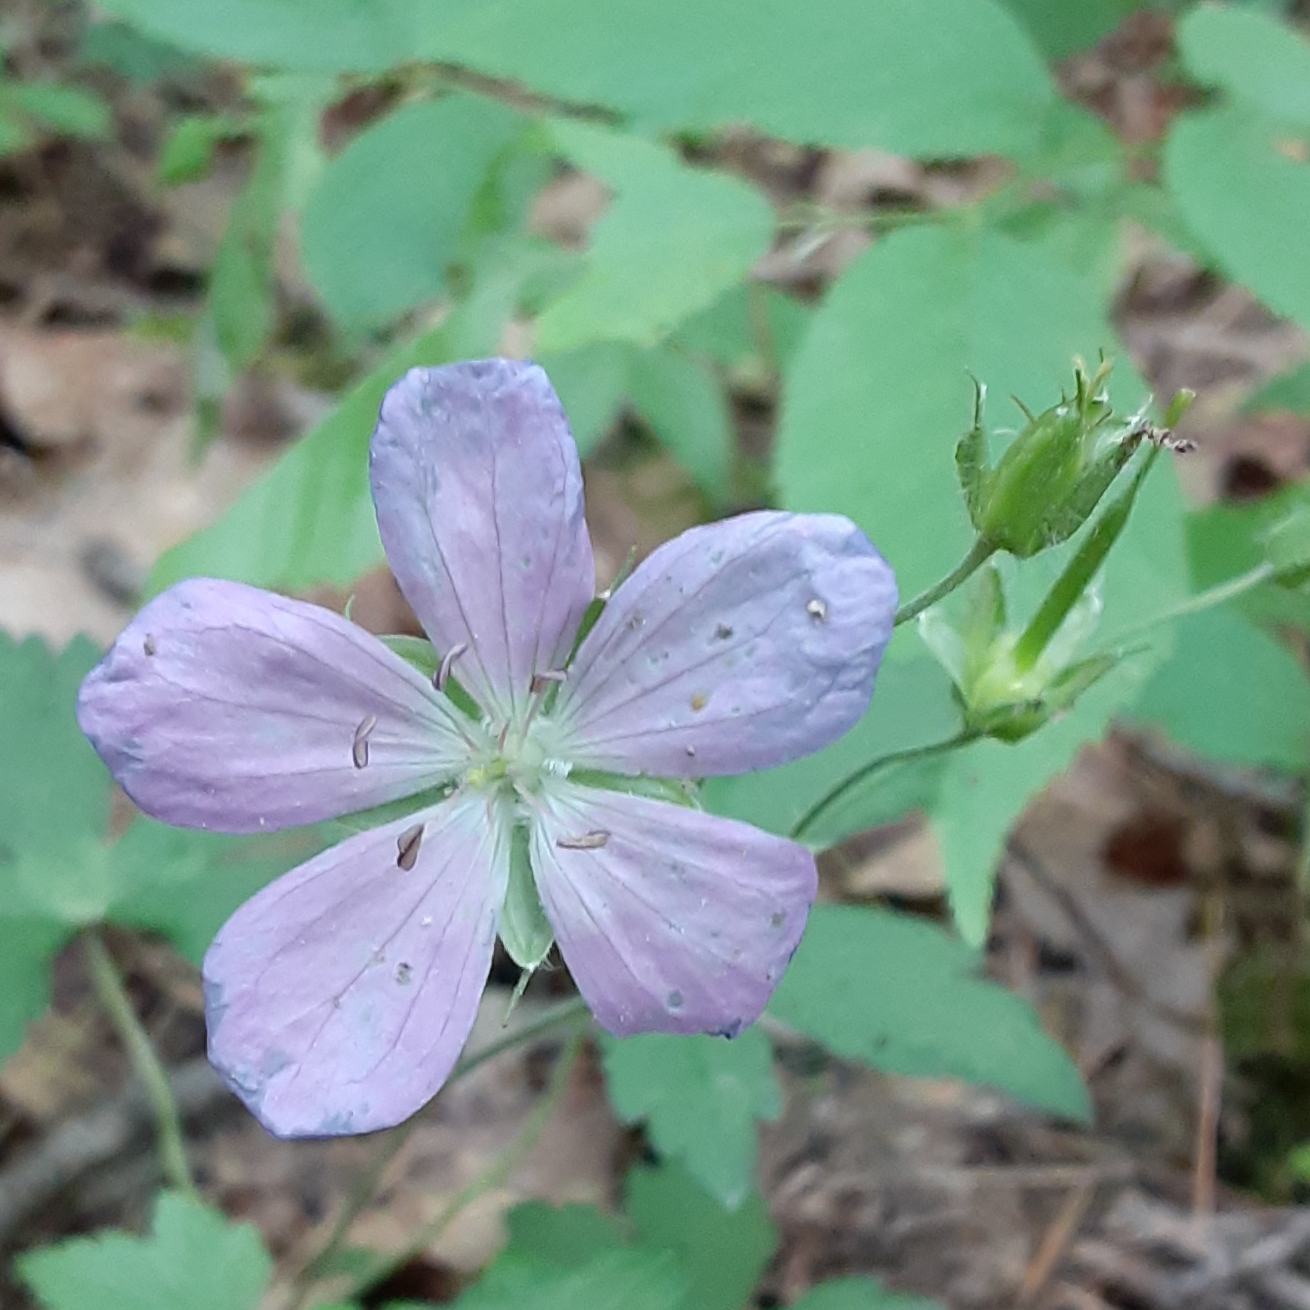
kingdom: Plantae
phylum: Tracheophyta
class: Magnoliopsida
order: Geraniales
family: Geraniaceae
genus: Geranium
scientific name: Geranium maculatum
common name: Spotted geranium
